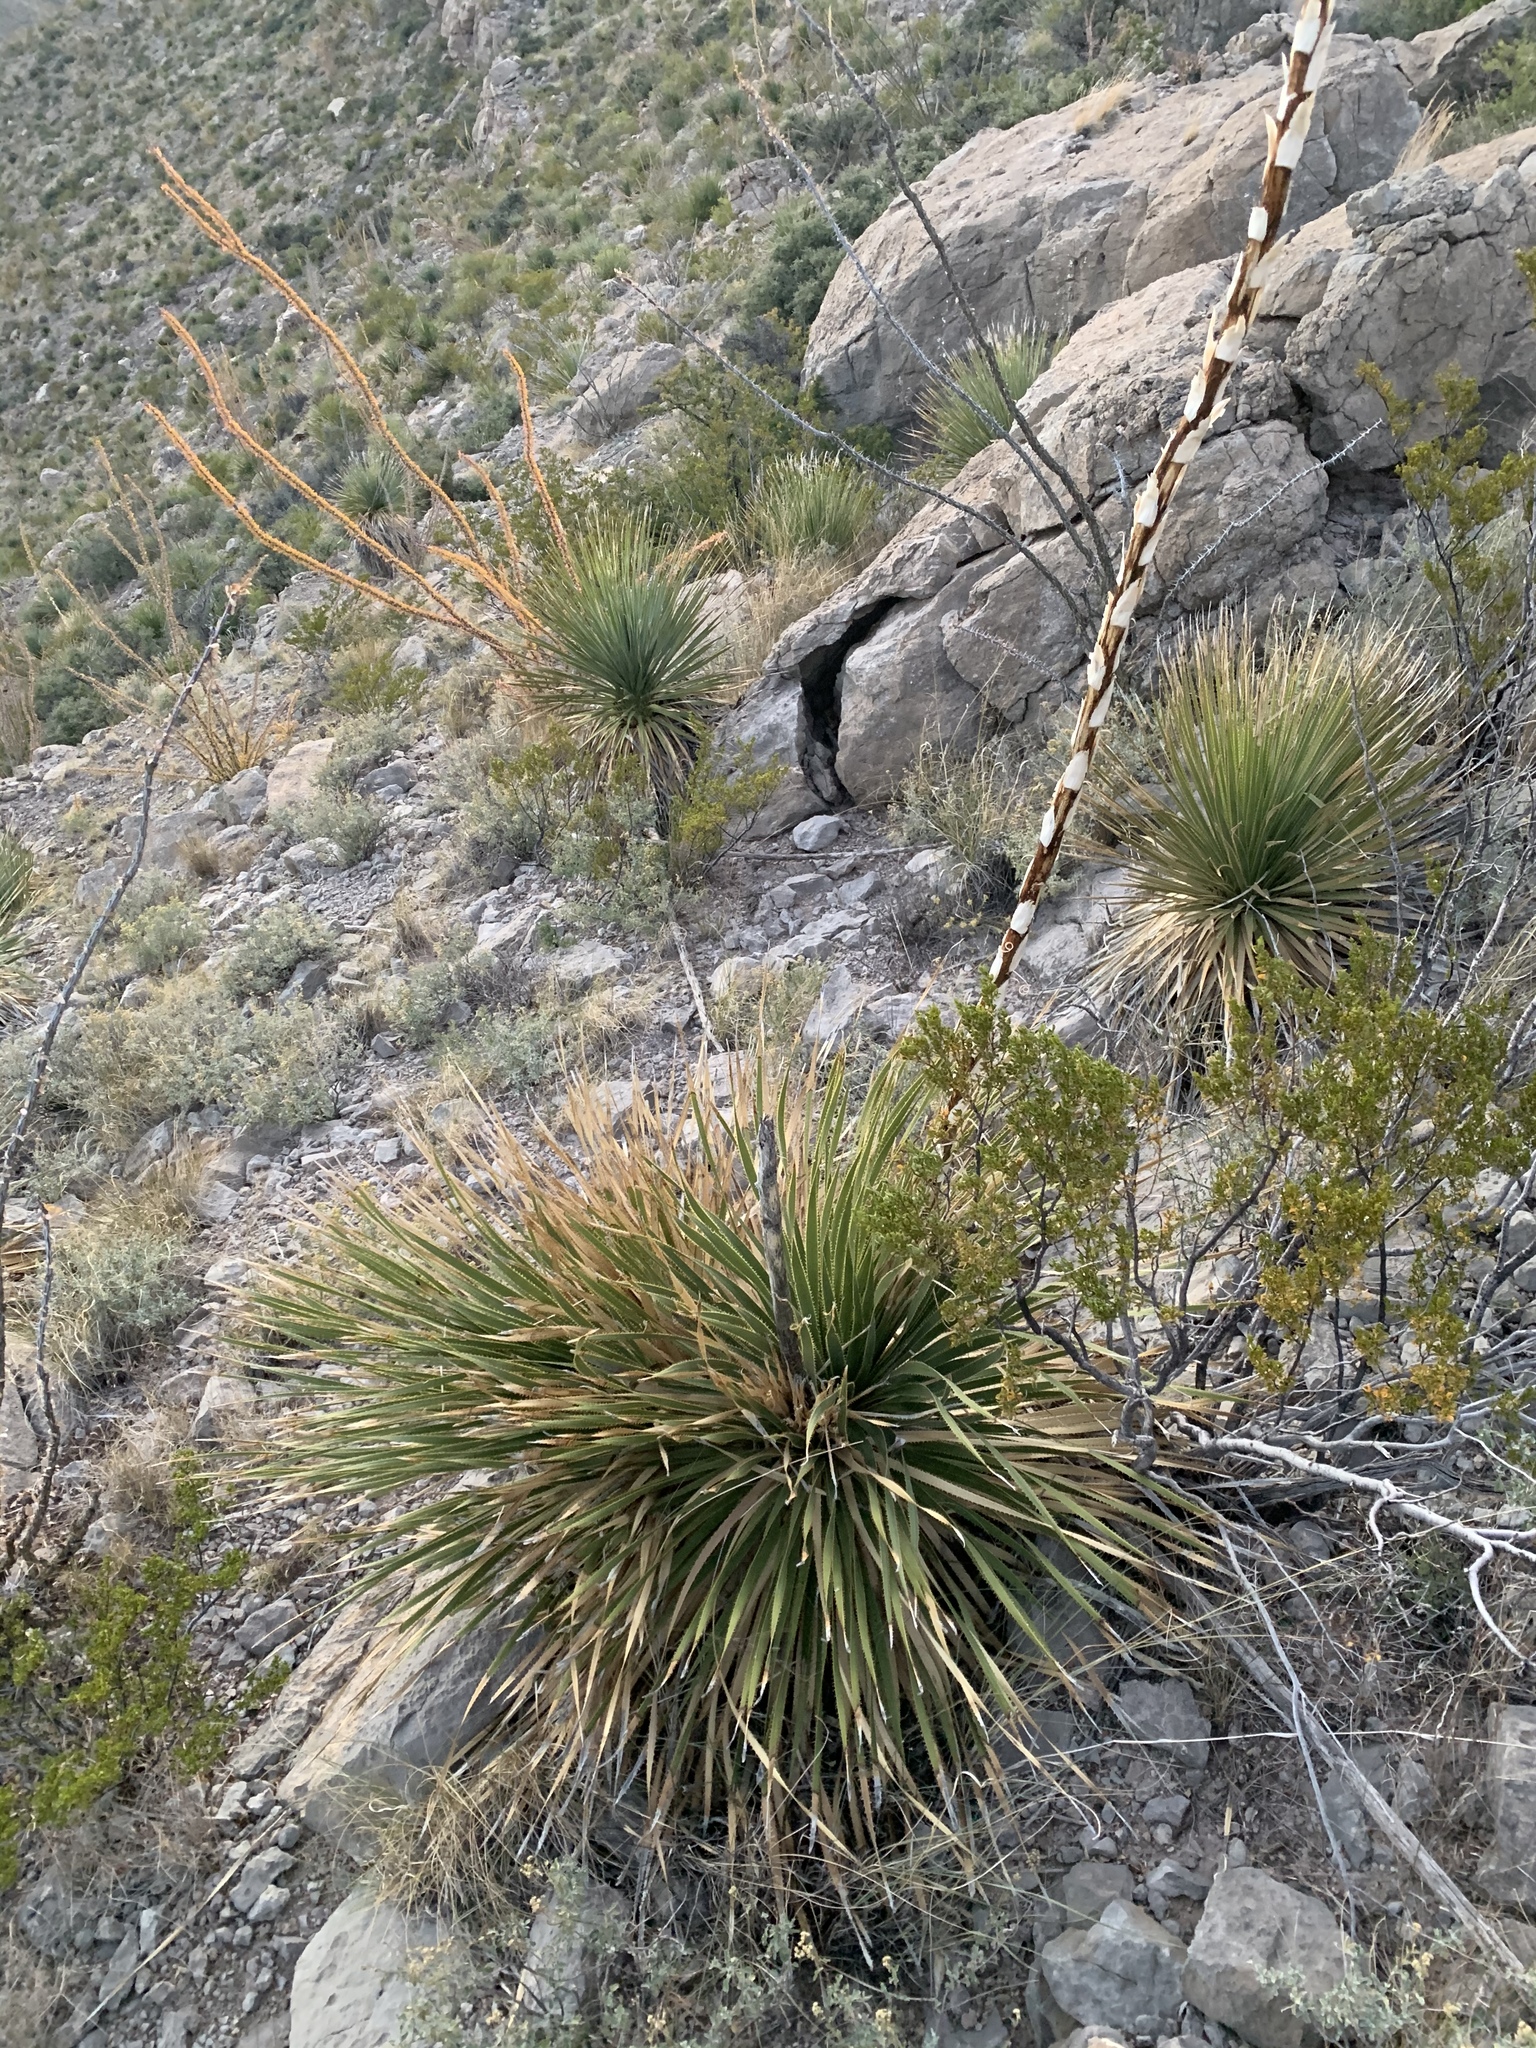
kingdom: Plantae
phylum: Tracheophyta
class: Liliopsida
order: Asparagales
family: Asparagaceae
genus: Dasylirion
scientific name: Dasylirion wheeleri
